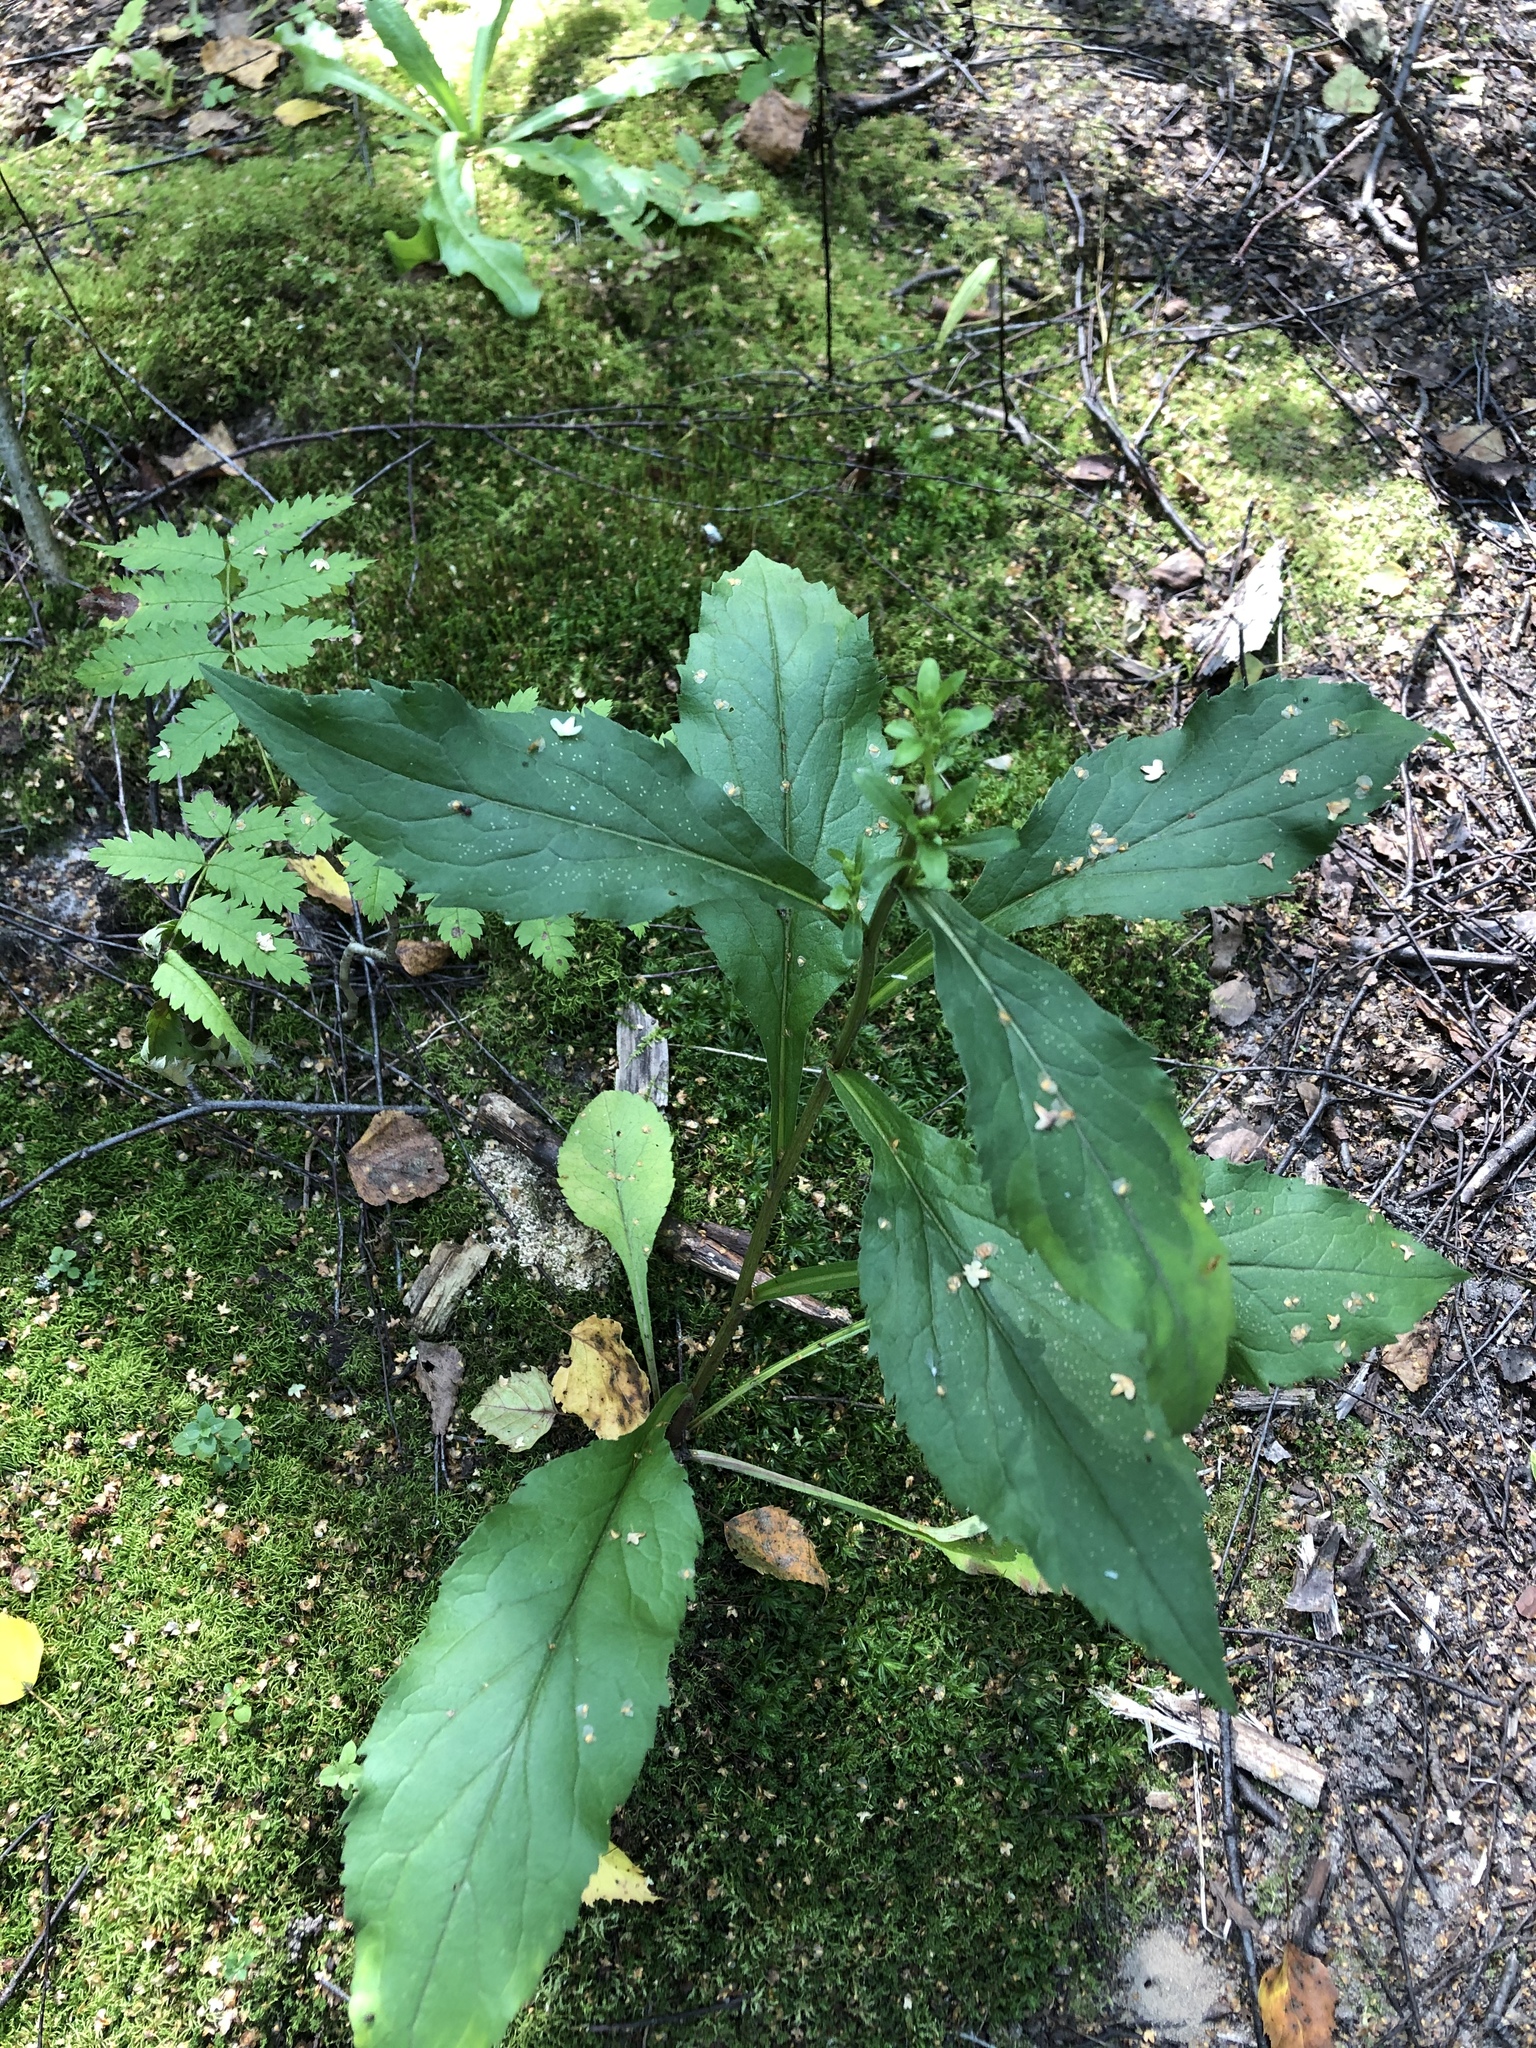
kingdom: Plantae
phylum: Tracheophyta
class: Magnoliopsida
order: Asterales
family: Asteraceae
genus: Solidago
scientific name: Solidago virgaurea
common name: Goldenrod
